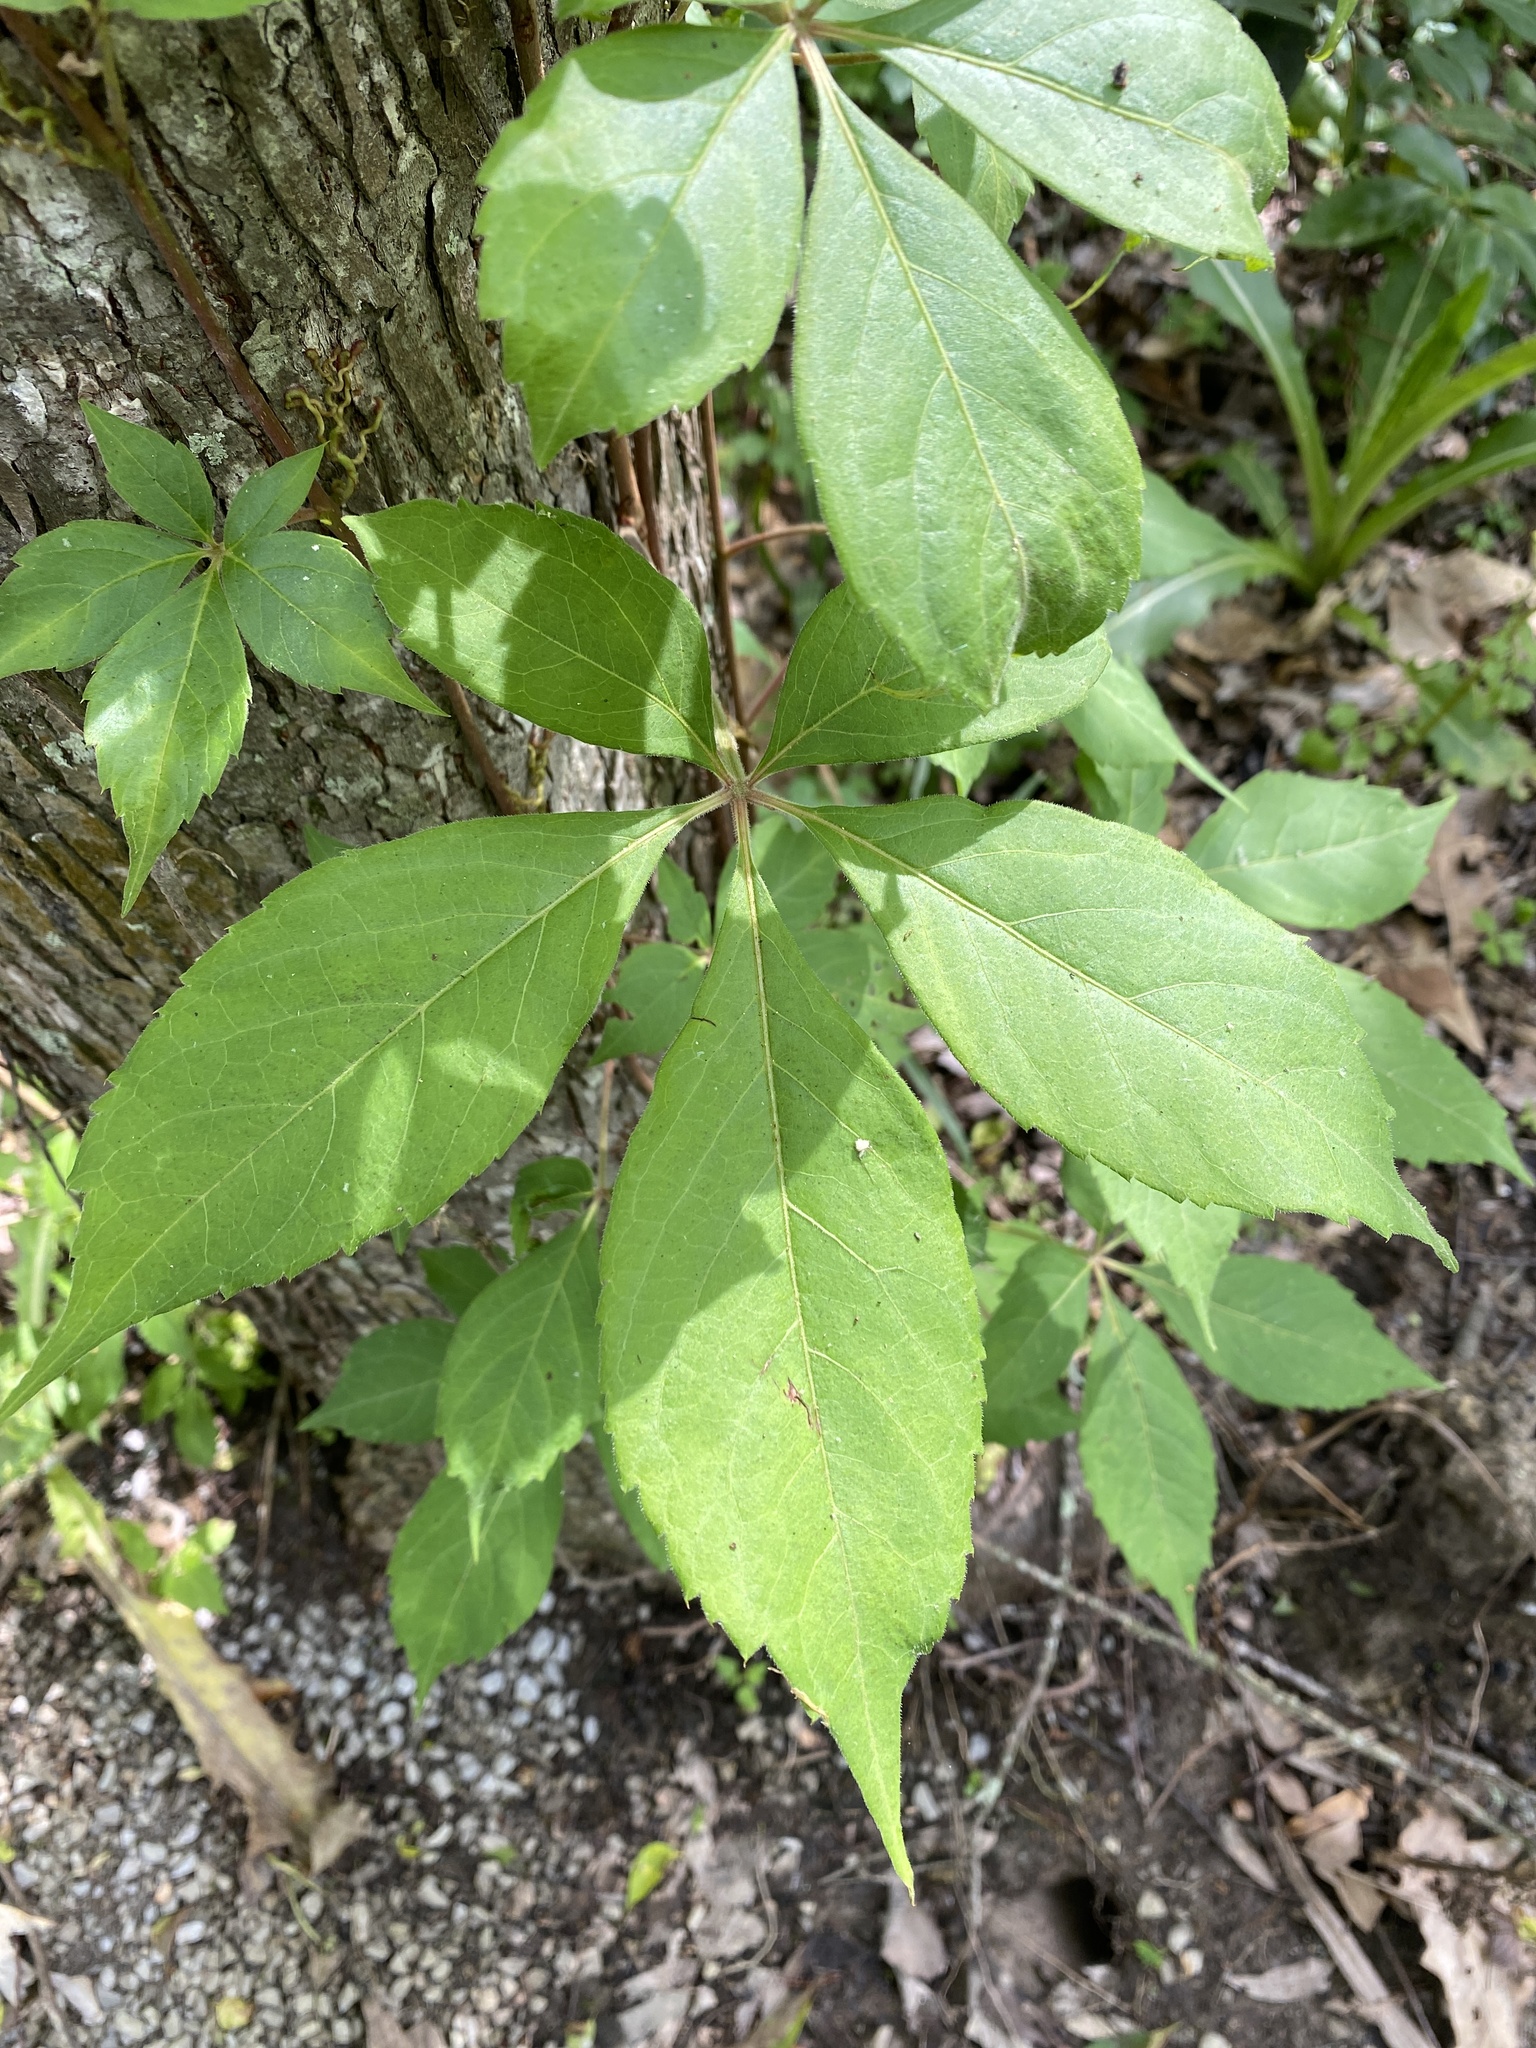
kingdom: Plantae
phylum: Tracheophyta
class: Magnoliopsida
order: Vitales
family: Vitaceae
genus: Parthenocissus
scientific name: Parthenocissus quinquefolia
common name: Virginia-creeper
